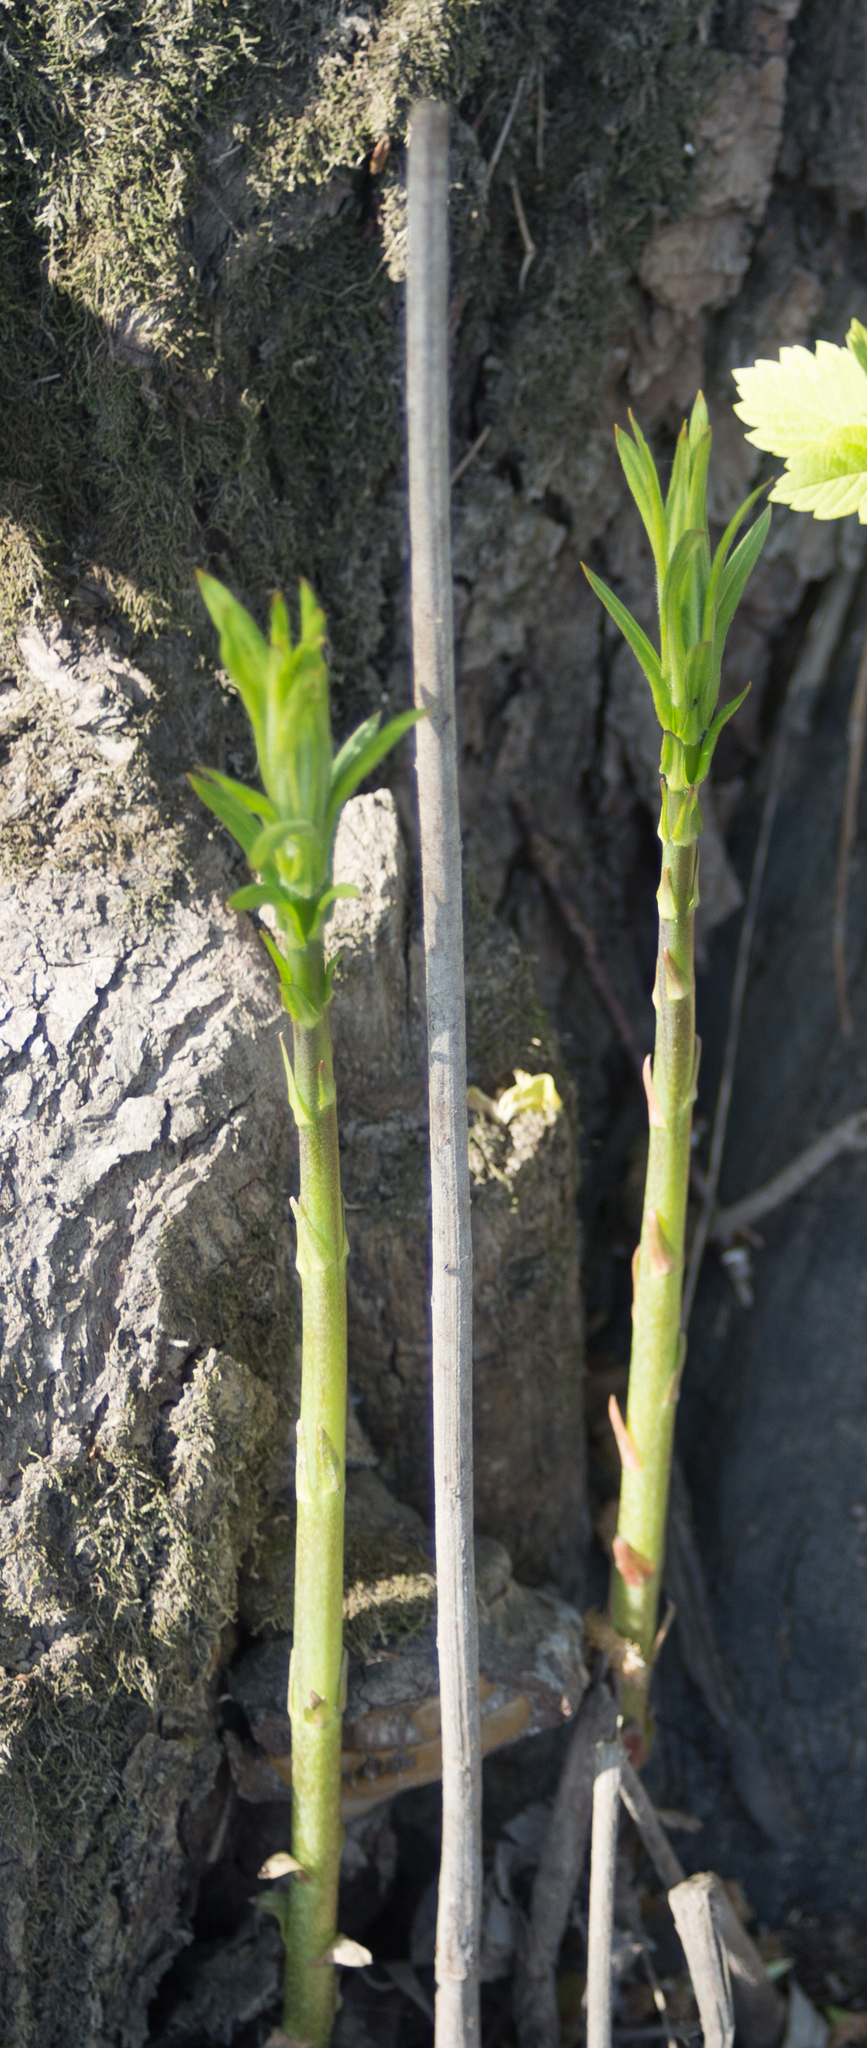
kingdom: Plantae
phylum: Tracheophyta
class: Magnoliopsida
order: Ericales
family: Primulaceae
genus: Lysimachia
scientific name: Lysimachia vulgaris
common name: Yellow loosestrife
